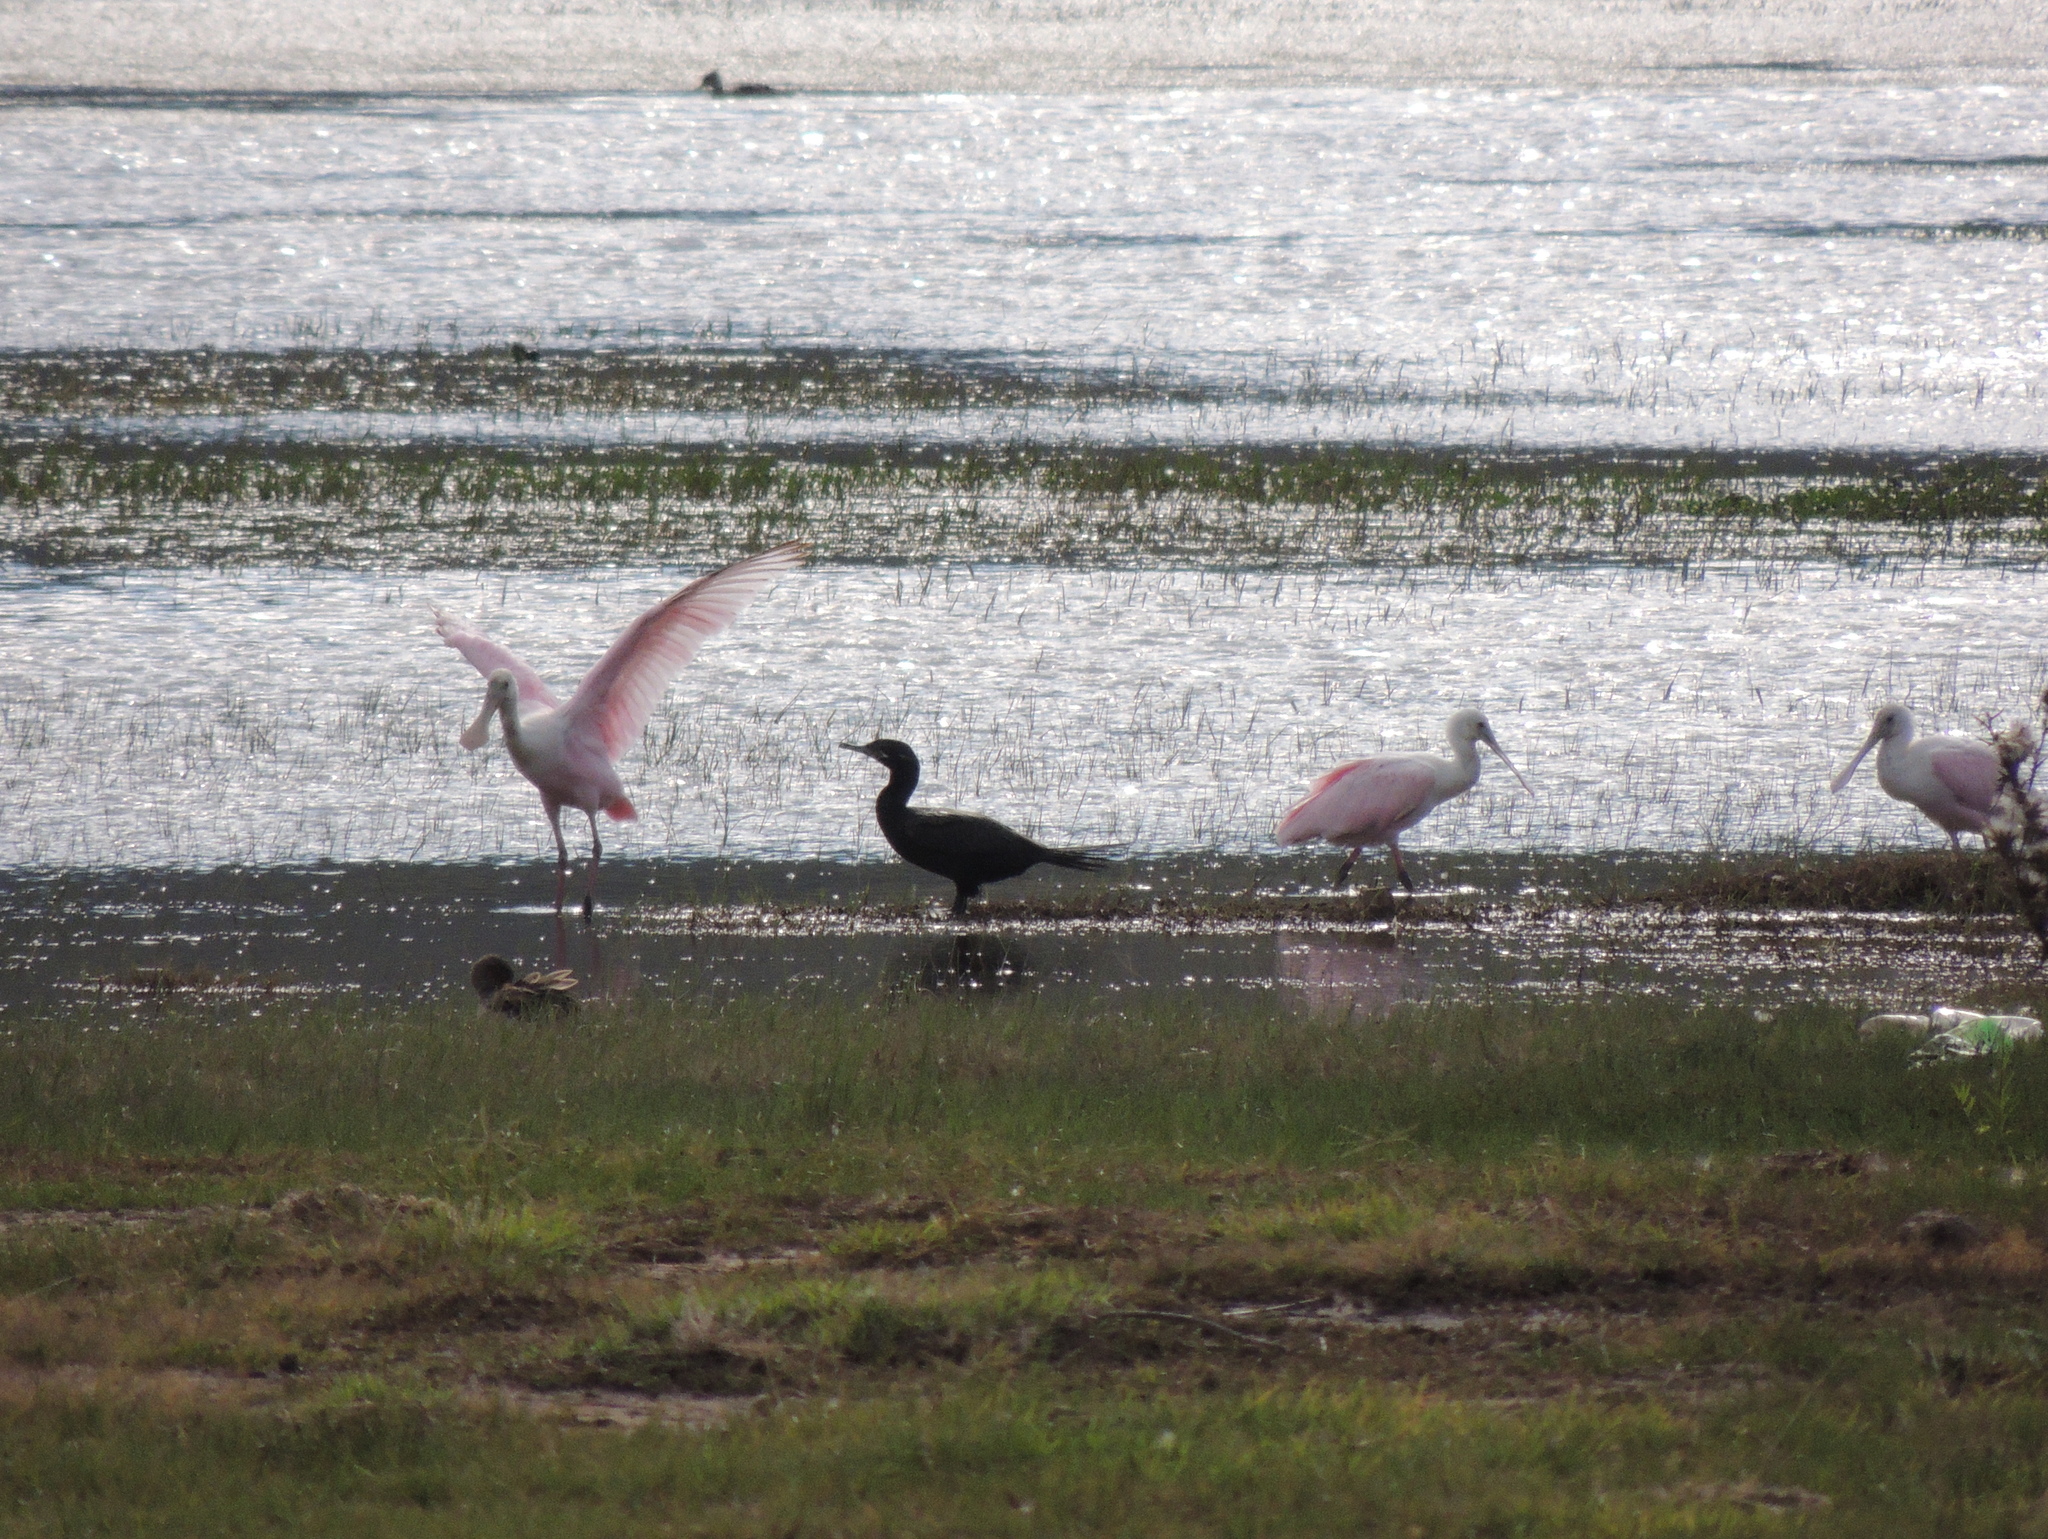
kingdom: Animalia
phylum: Chordata
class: Aves
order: Suliformes
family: Phalacrocoracidae
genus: Phalacrocorax
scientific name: Phalacrocorax brasilianus
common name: Neotropic cormorant
